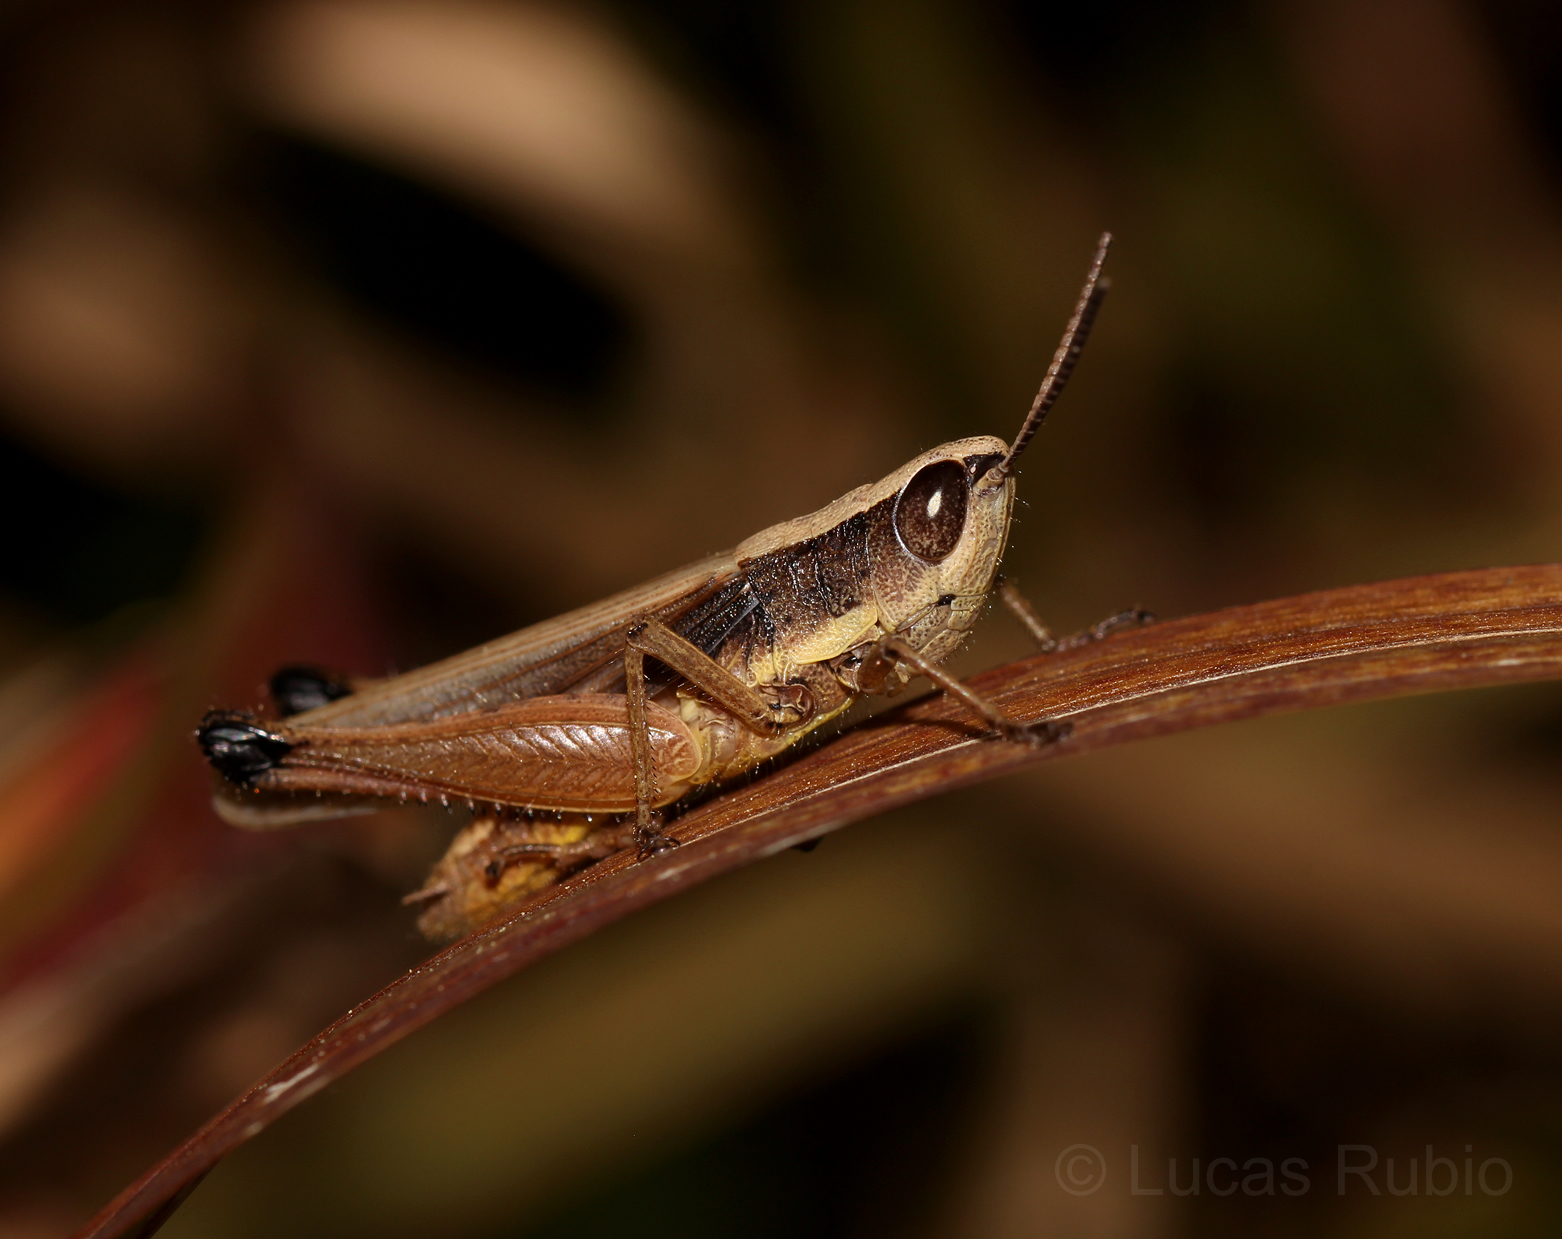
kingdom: Animalia
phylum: Arthropoda
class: Insecta
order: Orthoptera
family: Acrididae
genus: Amblytropidia
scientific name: Amblytropidia sola
